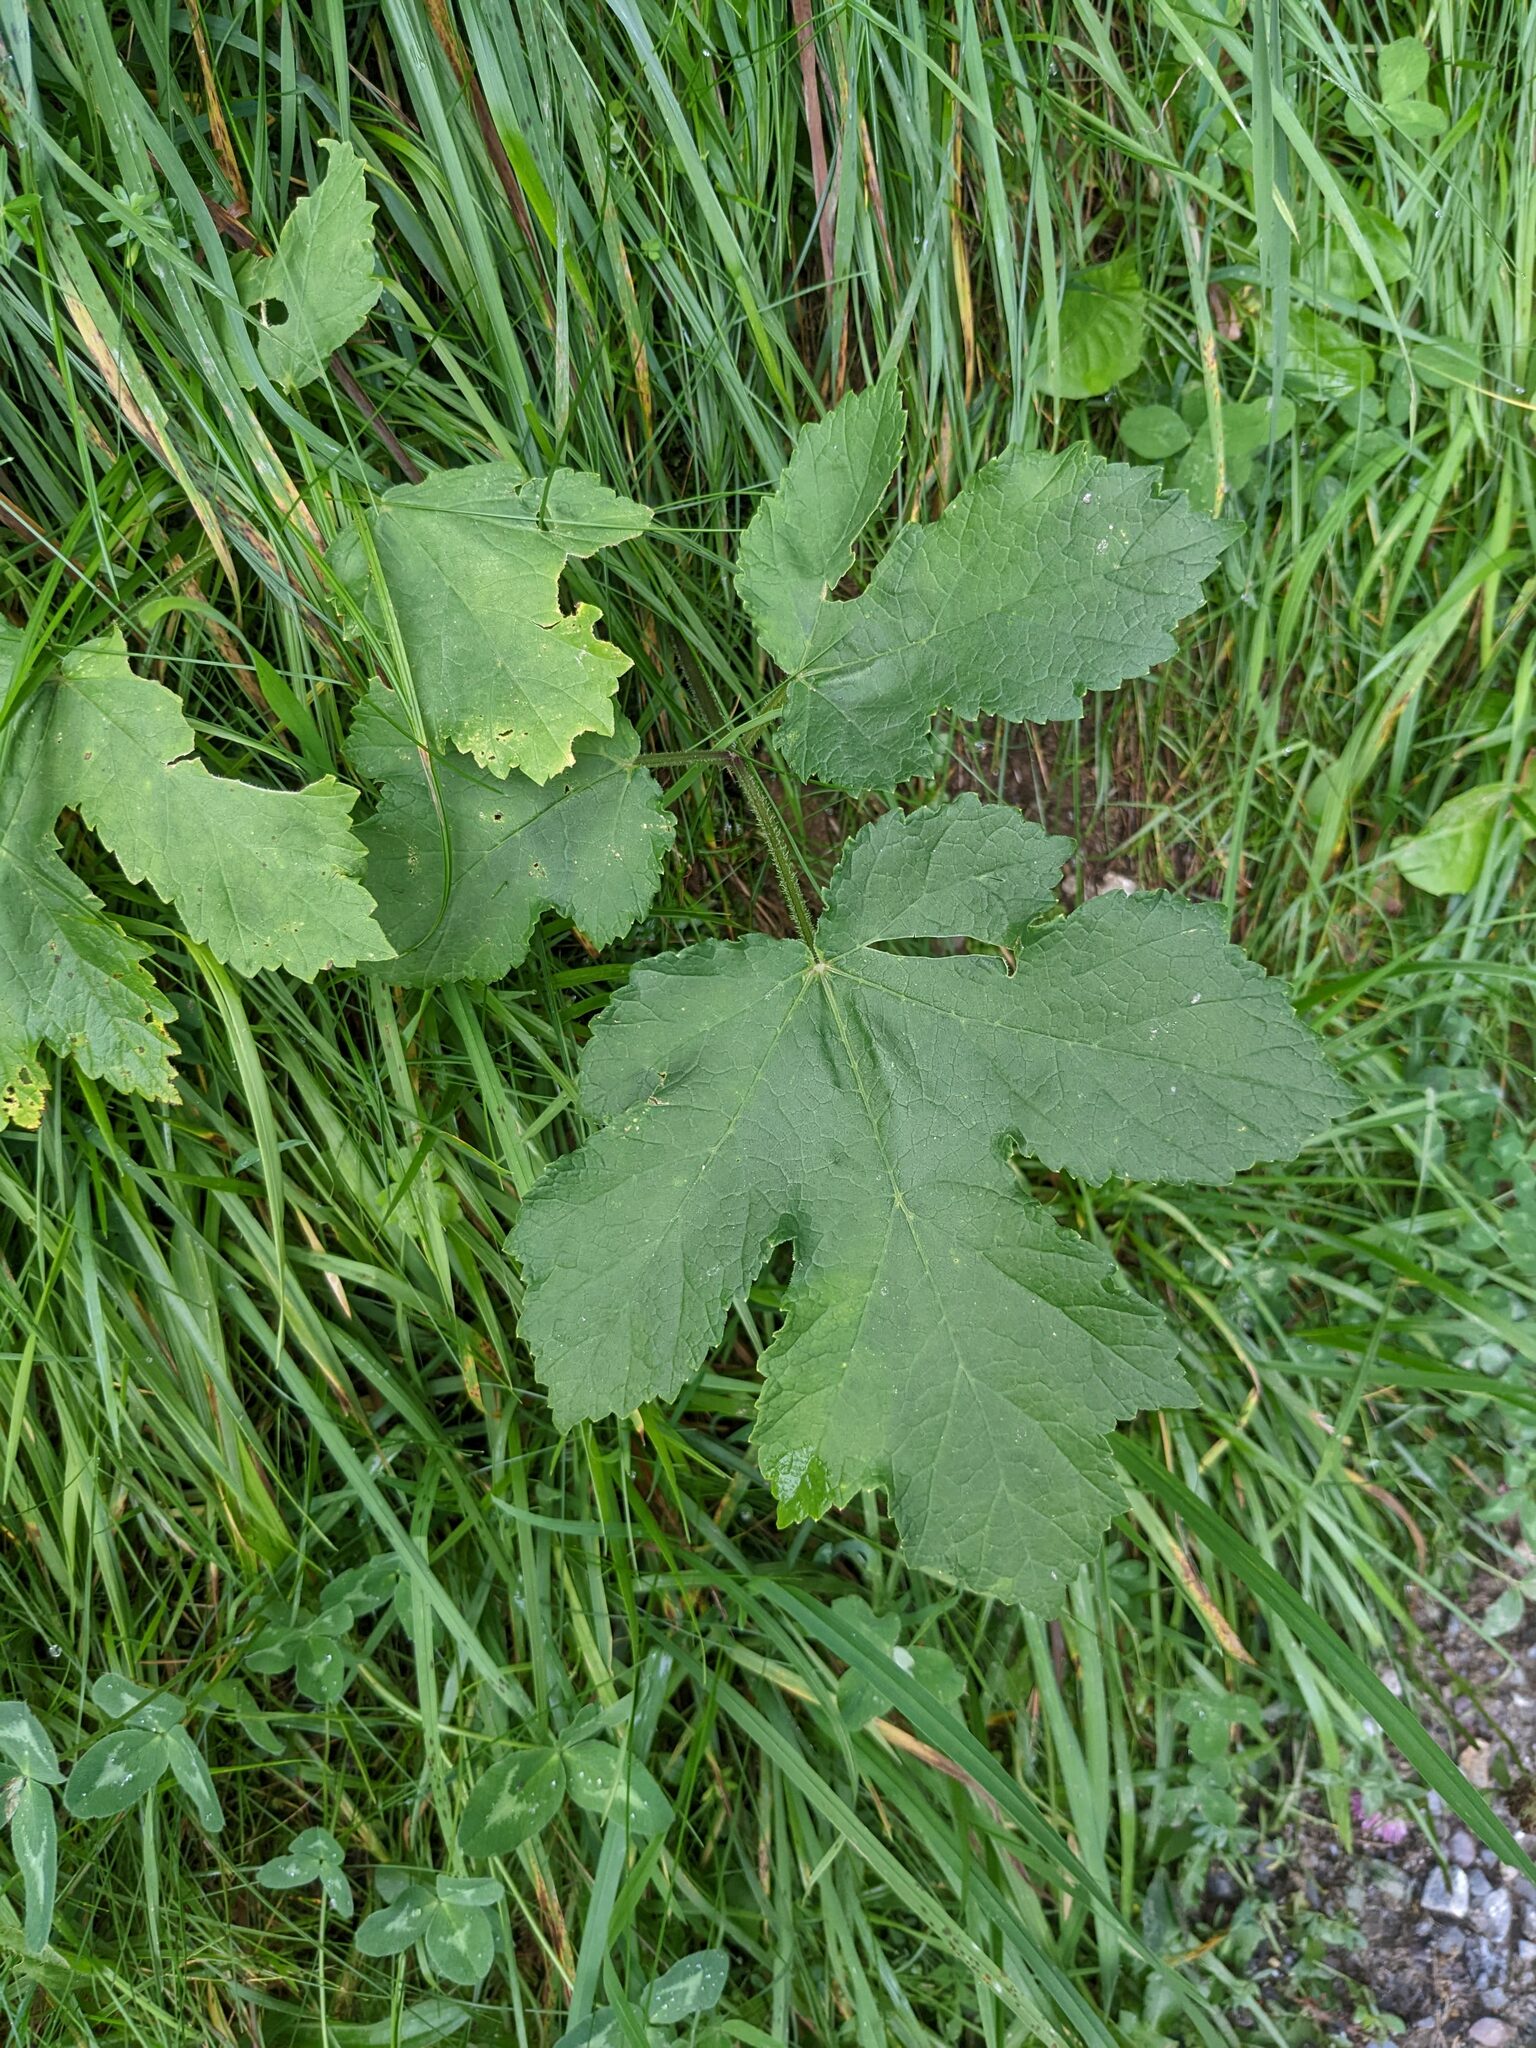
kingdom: Plantae
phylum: Tracheophyta
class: Magnoliopsida
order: Apiales
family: Apiaceae
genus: Heracleum
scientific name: Heracleum sphondylium
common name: Hogweed
